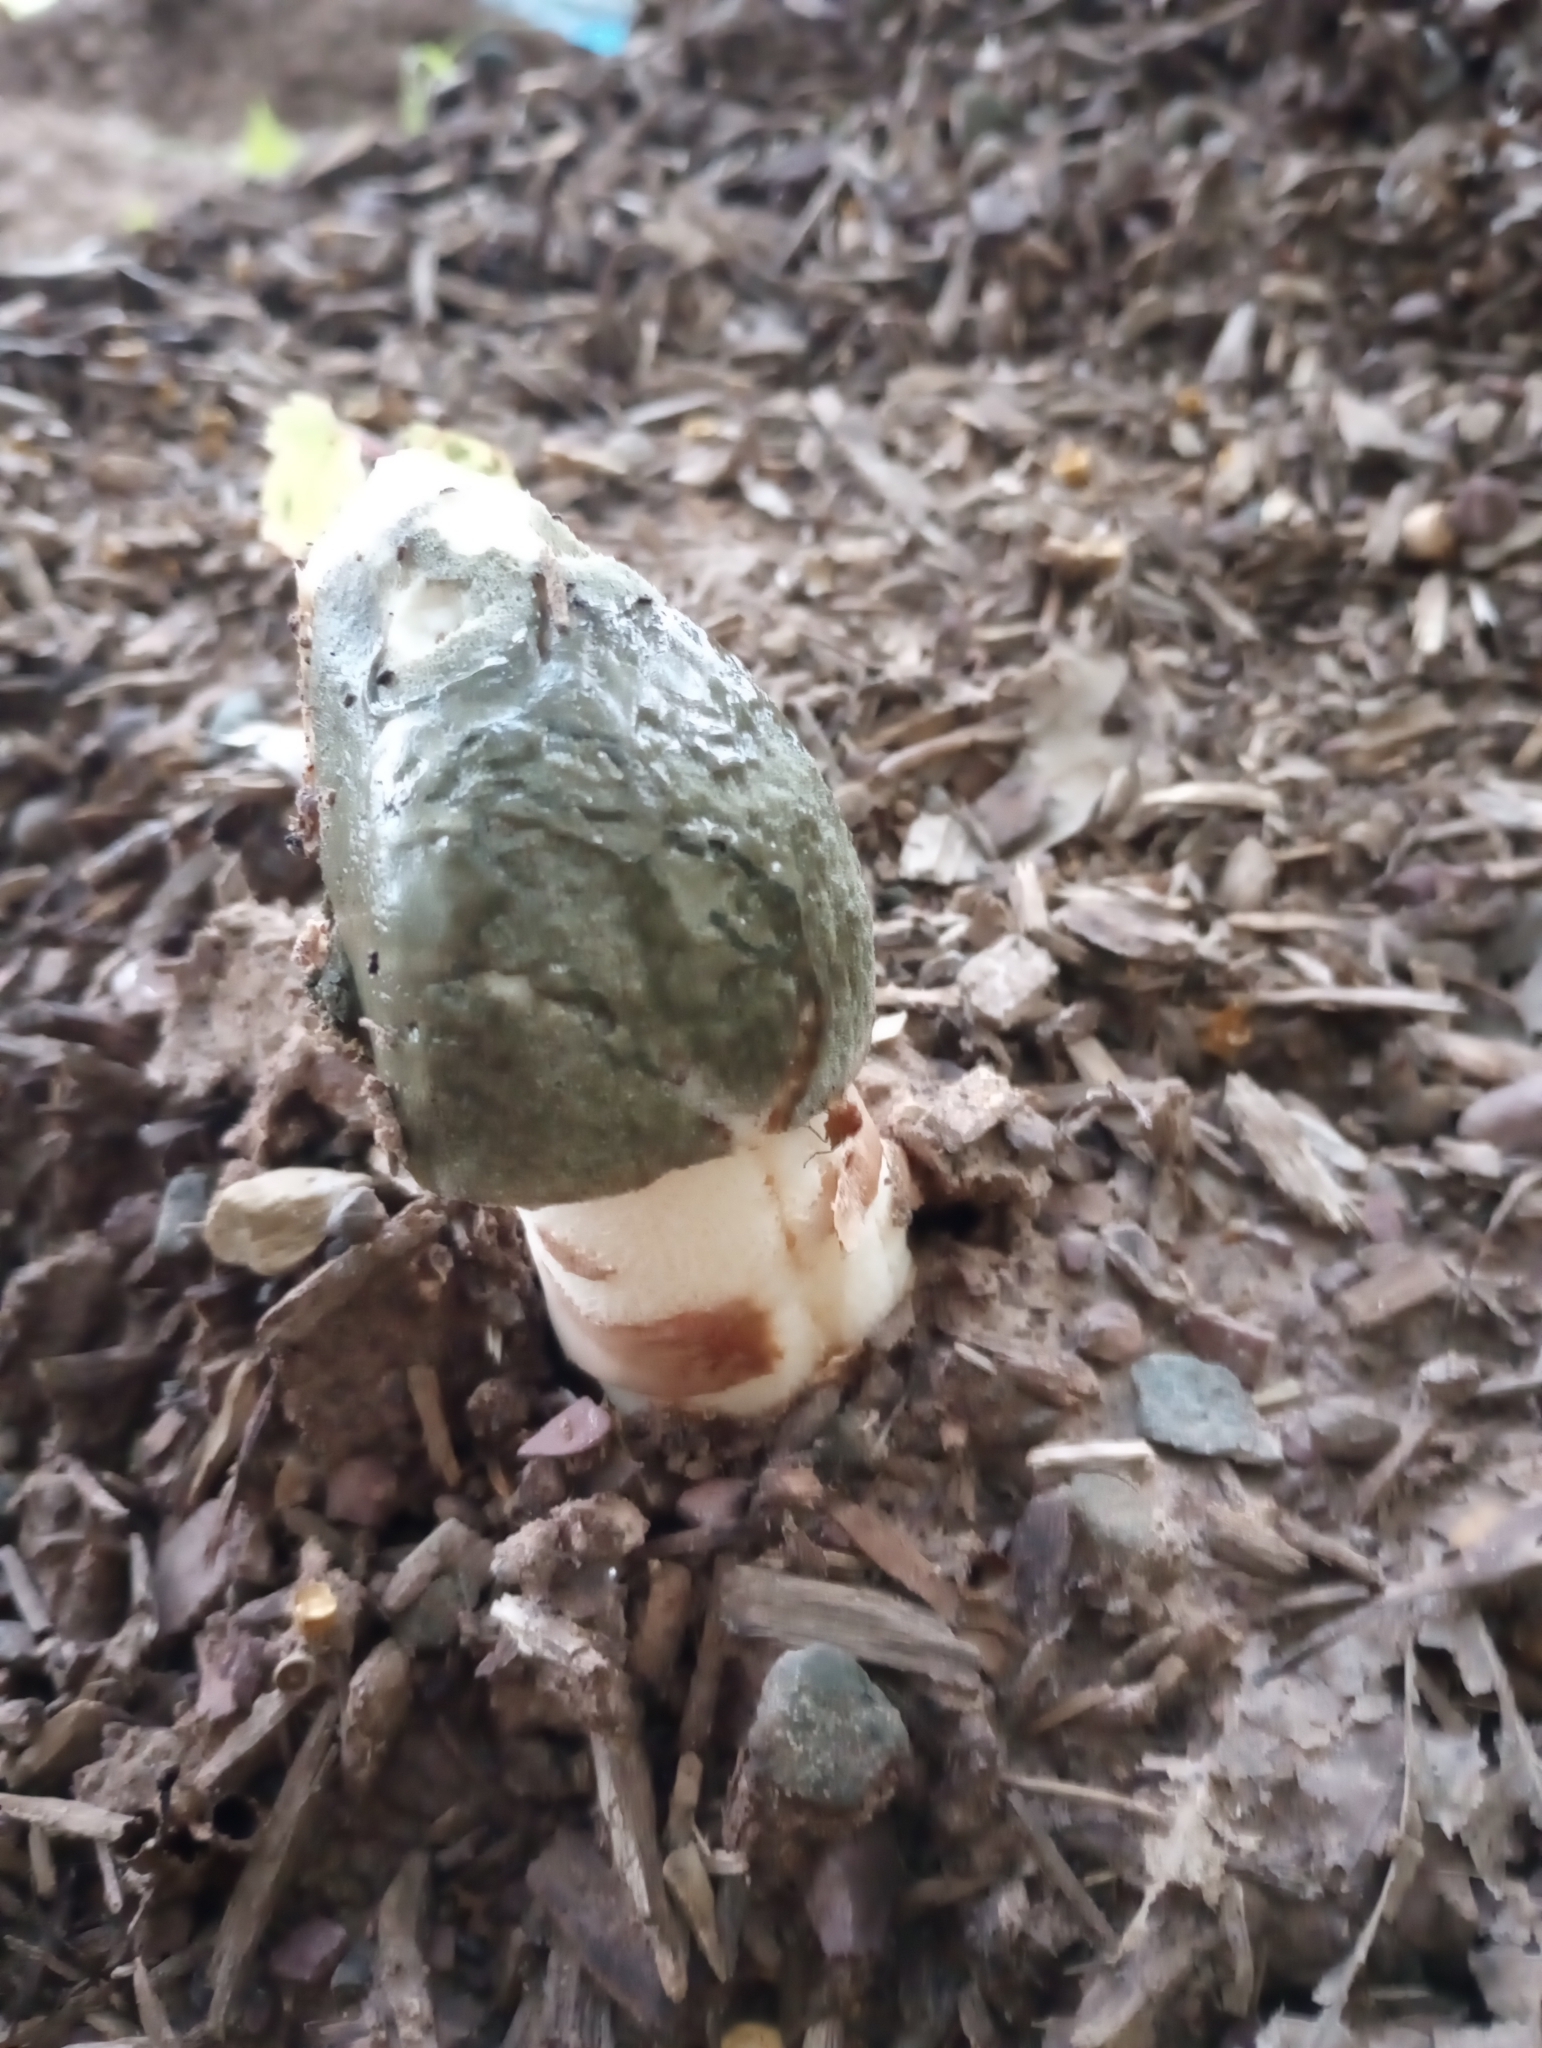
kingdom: Fungi
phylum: Basidiomycota
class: Agaricomycetes
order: Phallales
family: Phallaceae
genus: Phallus
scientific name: Phallus ravenelii
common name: Ravenel's stinkhorn
